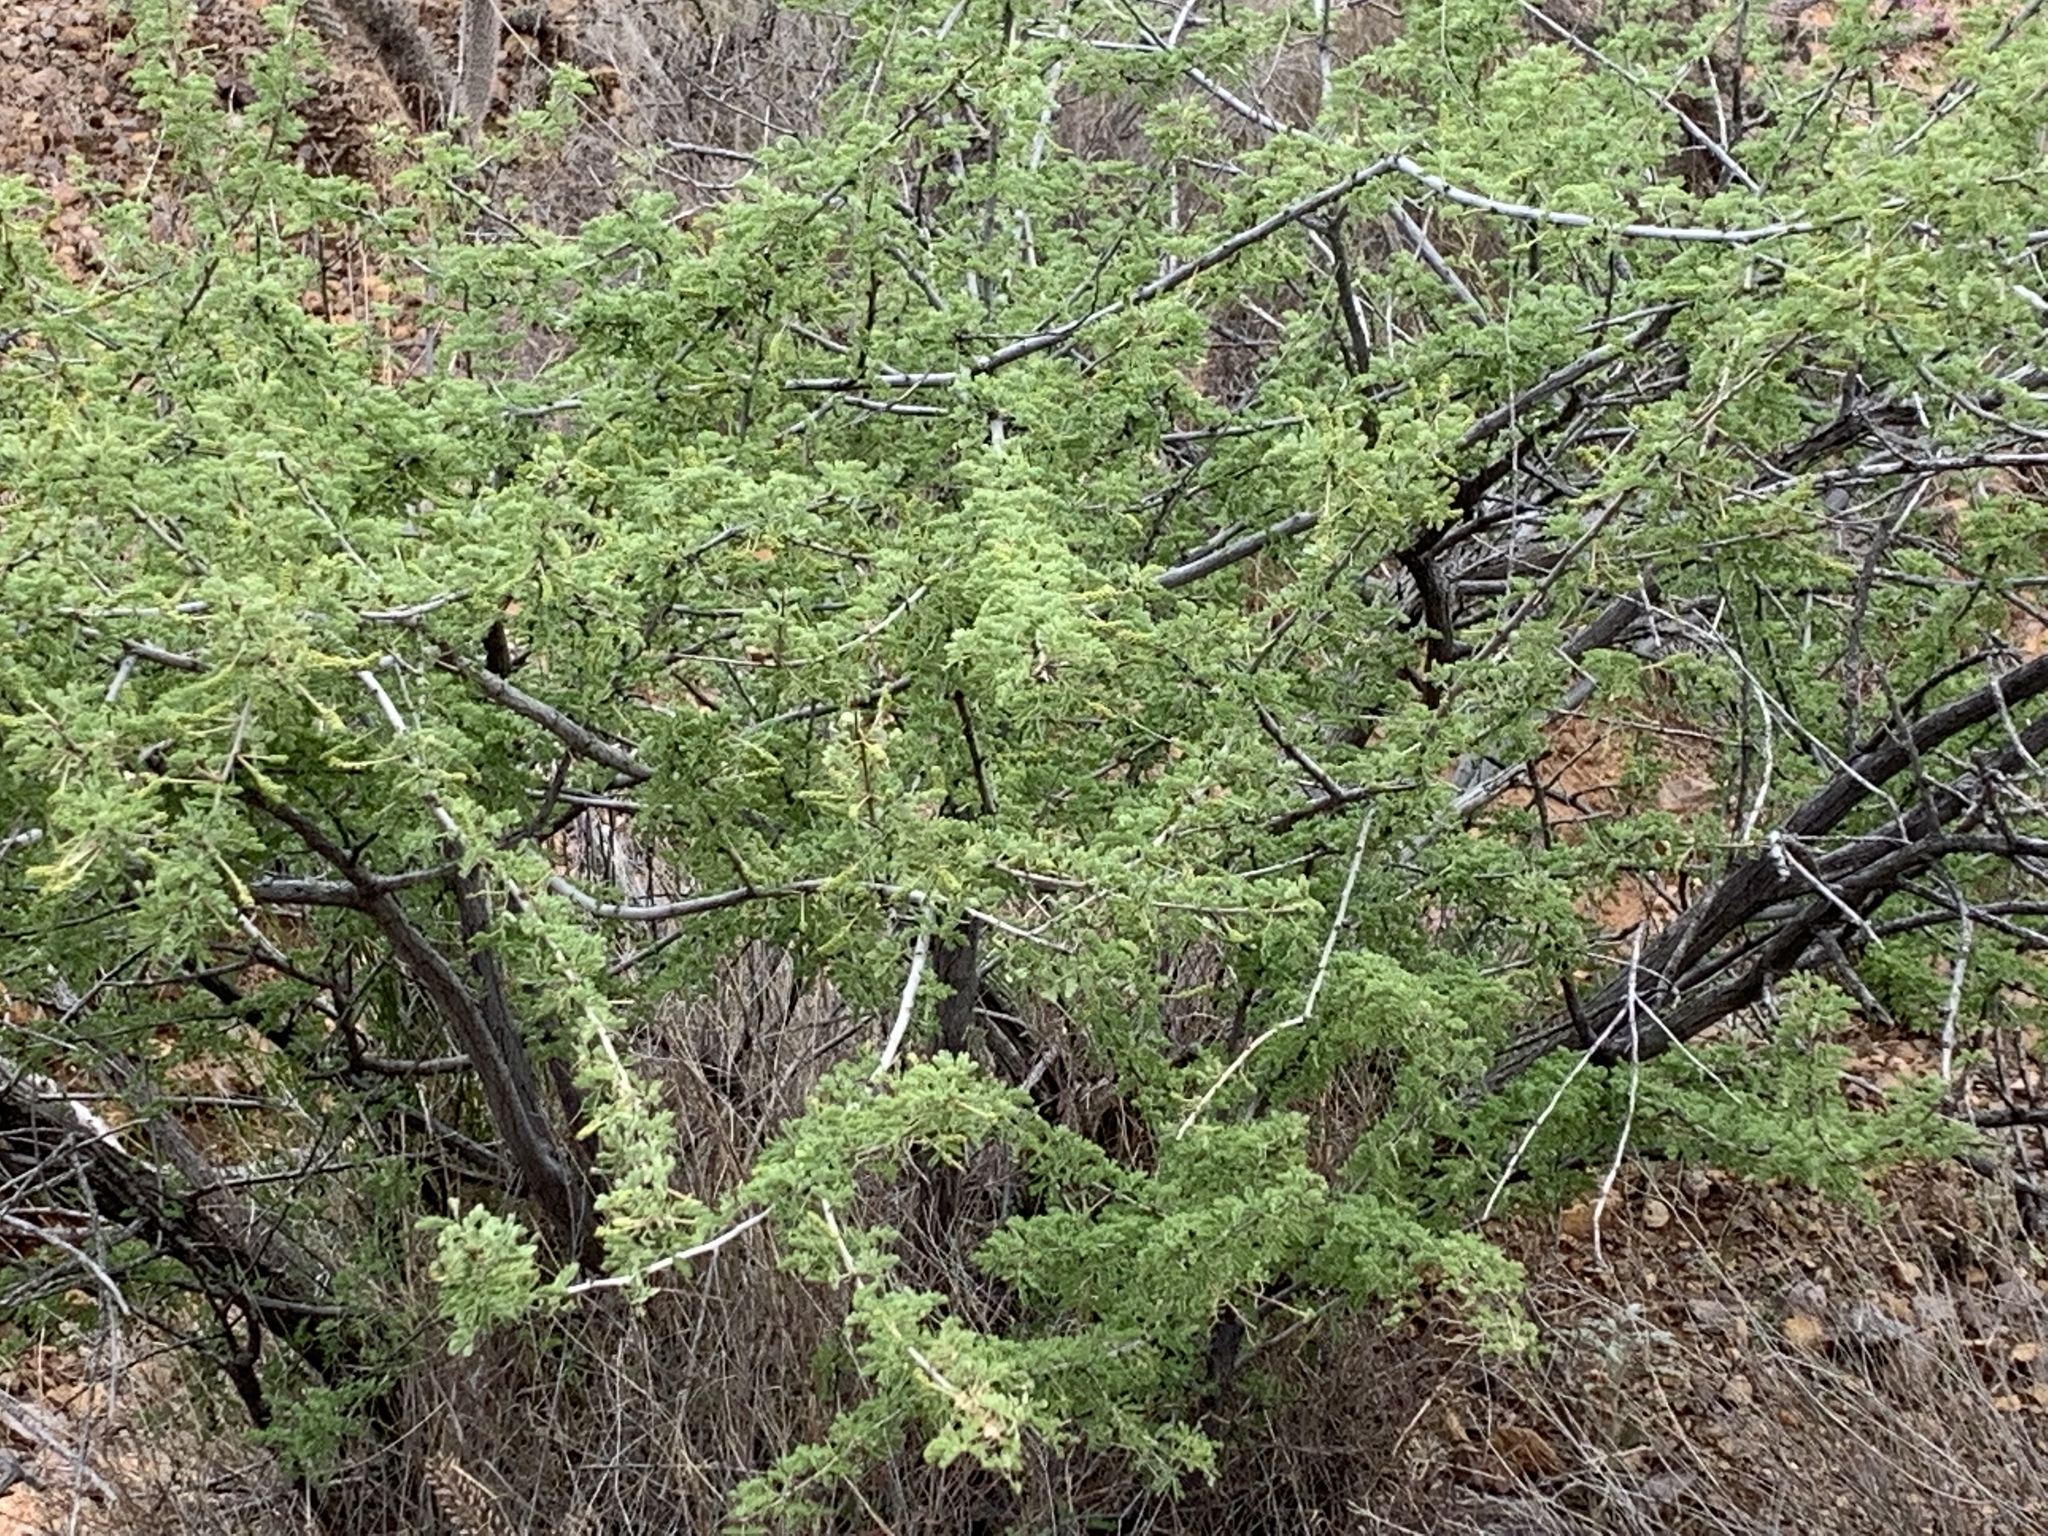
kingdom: Plantae
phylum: Tracheophyta
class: Magnoliopsida
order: Fabales
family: Fabaceae
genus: Senegalia
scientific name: Senegalia greggii
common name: Texas-mimosa
